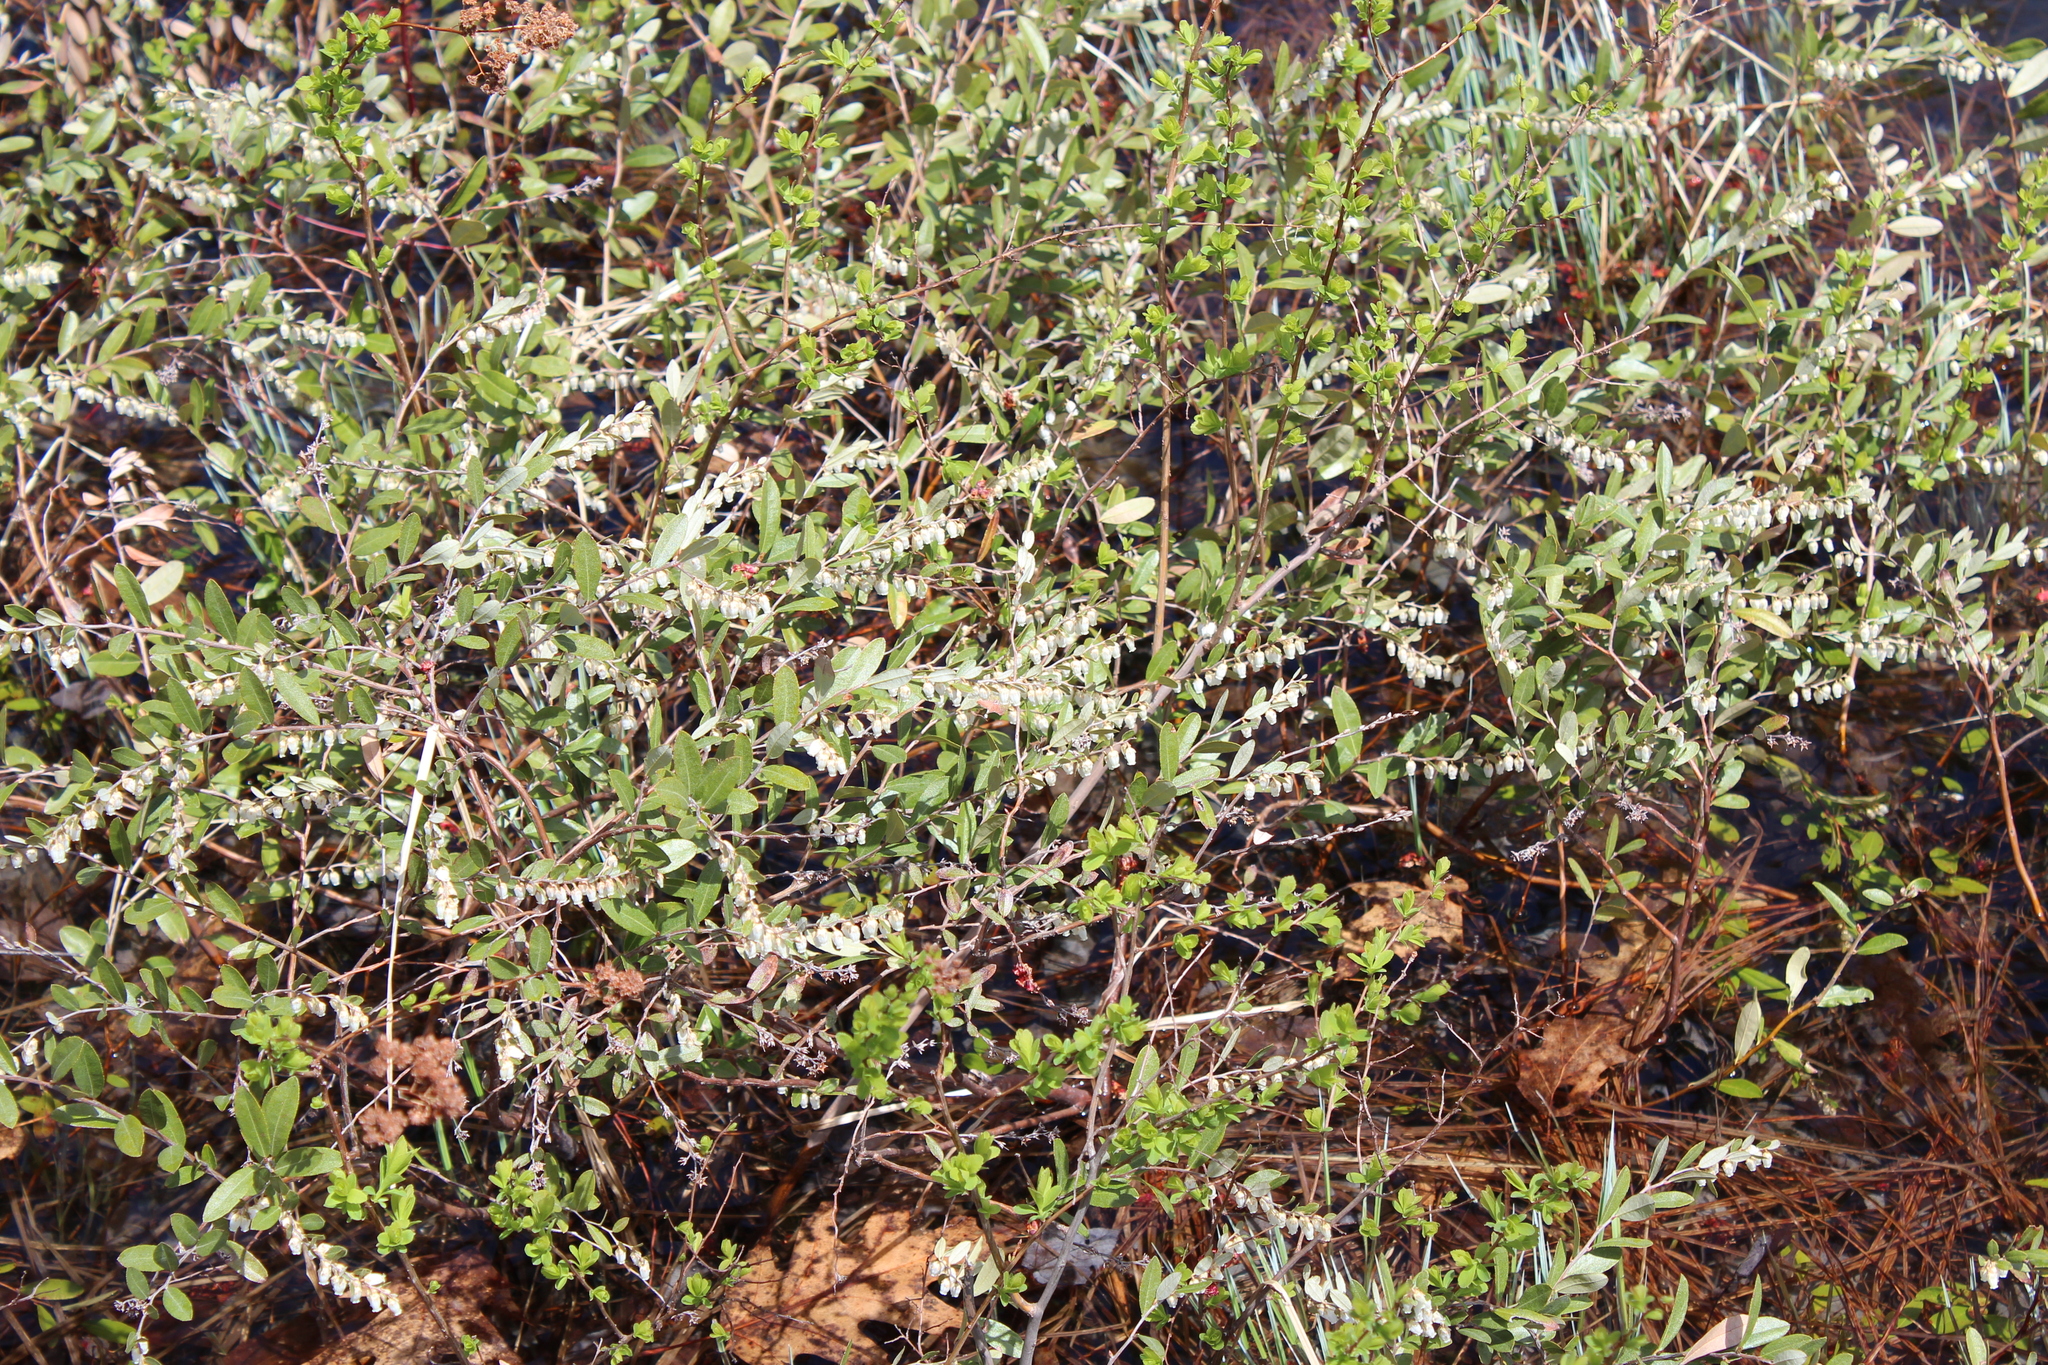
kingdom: Plantae
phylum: Tracheophyta
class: Magnoliopsida
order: Ericales
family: Ericaceae
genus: Chamaedaphne
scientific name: Chamaedaphne calyculata
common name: Leatherleaf
